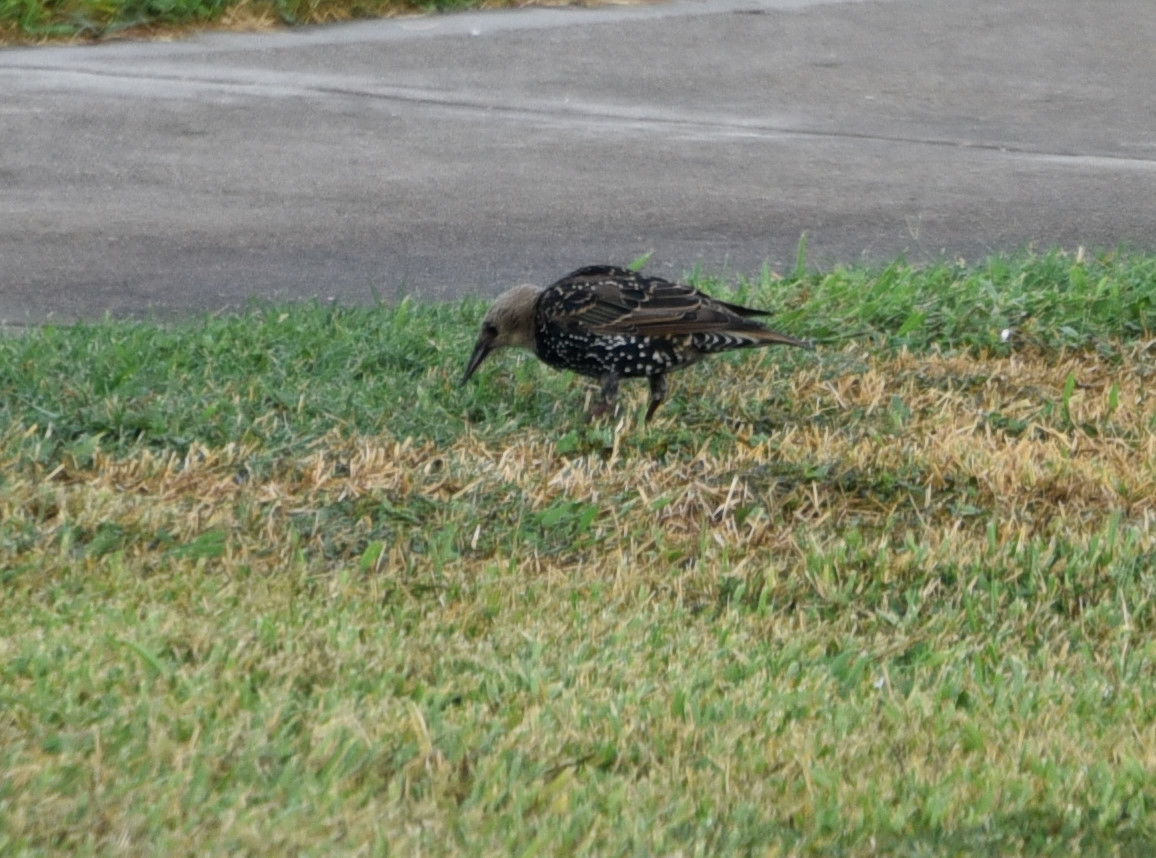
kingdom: Animalia
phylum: Chordata
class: Aves
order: Passeriformes
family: Sturnidae
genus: Sturnus
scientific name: Sturnus vulgaris
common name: Common starling
